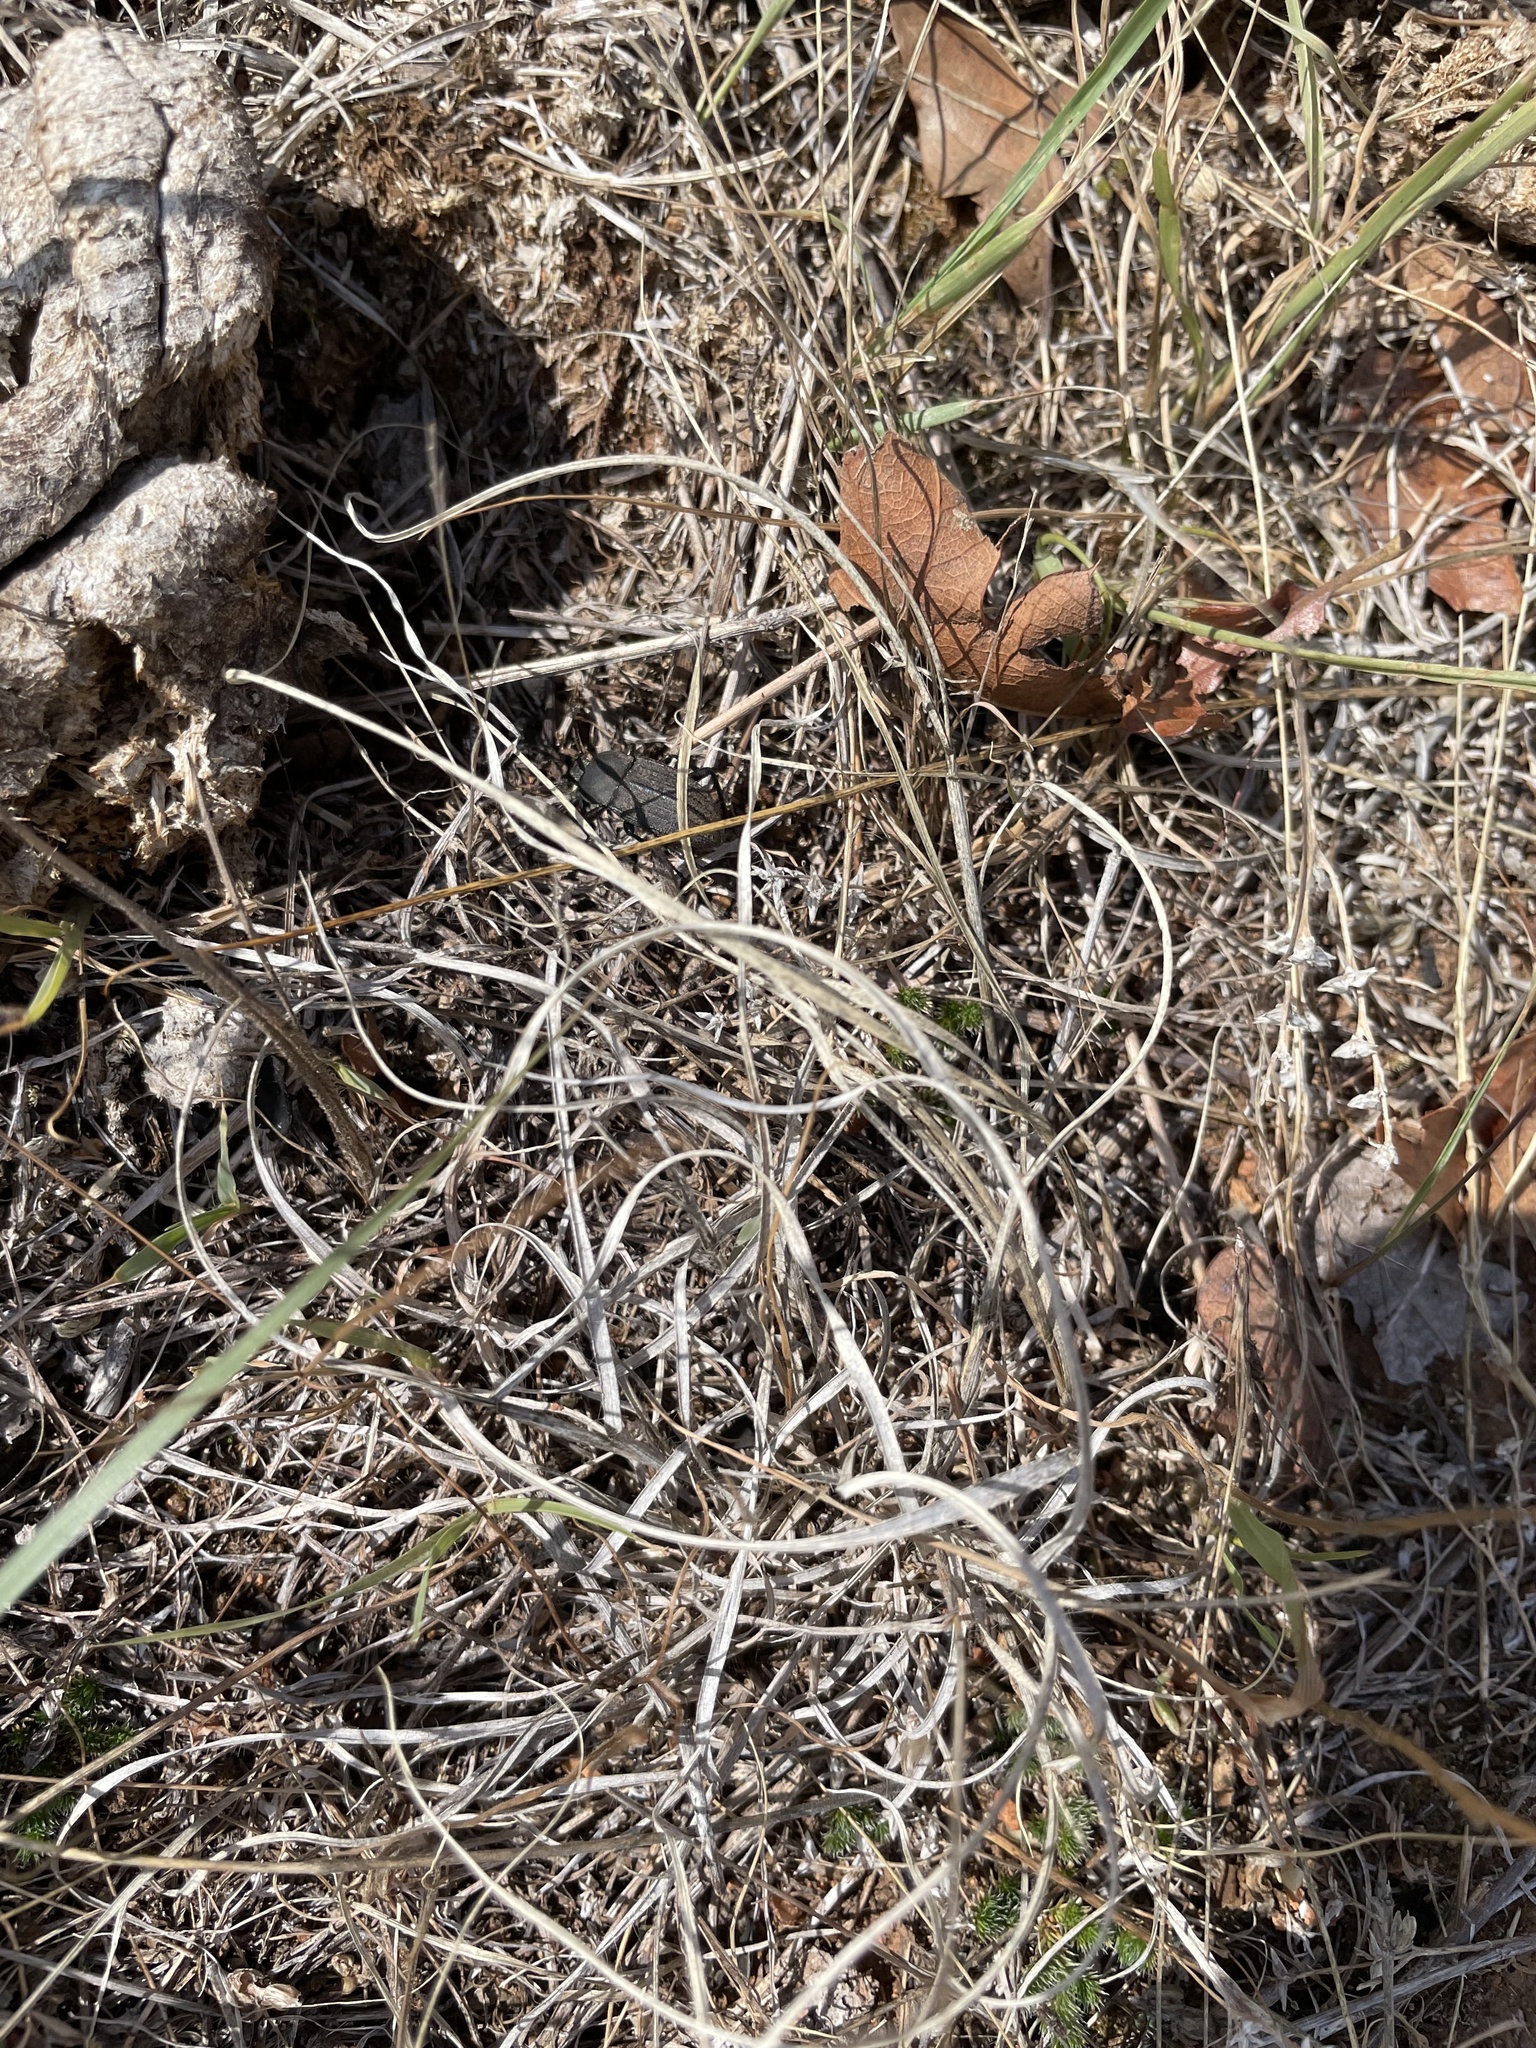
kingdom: Animalia
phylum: Arthropoda
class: Insecta
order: Coleoptera
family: Tenebrionidae
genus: Eleodes
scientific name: Eleodes tricostata
